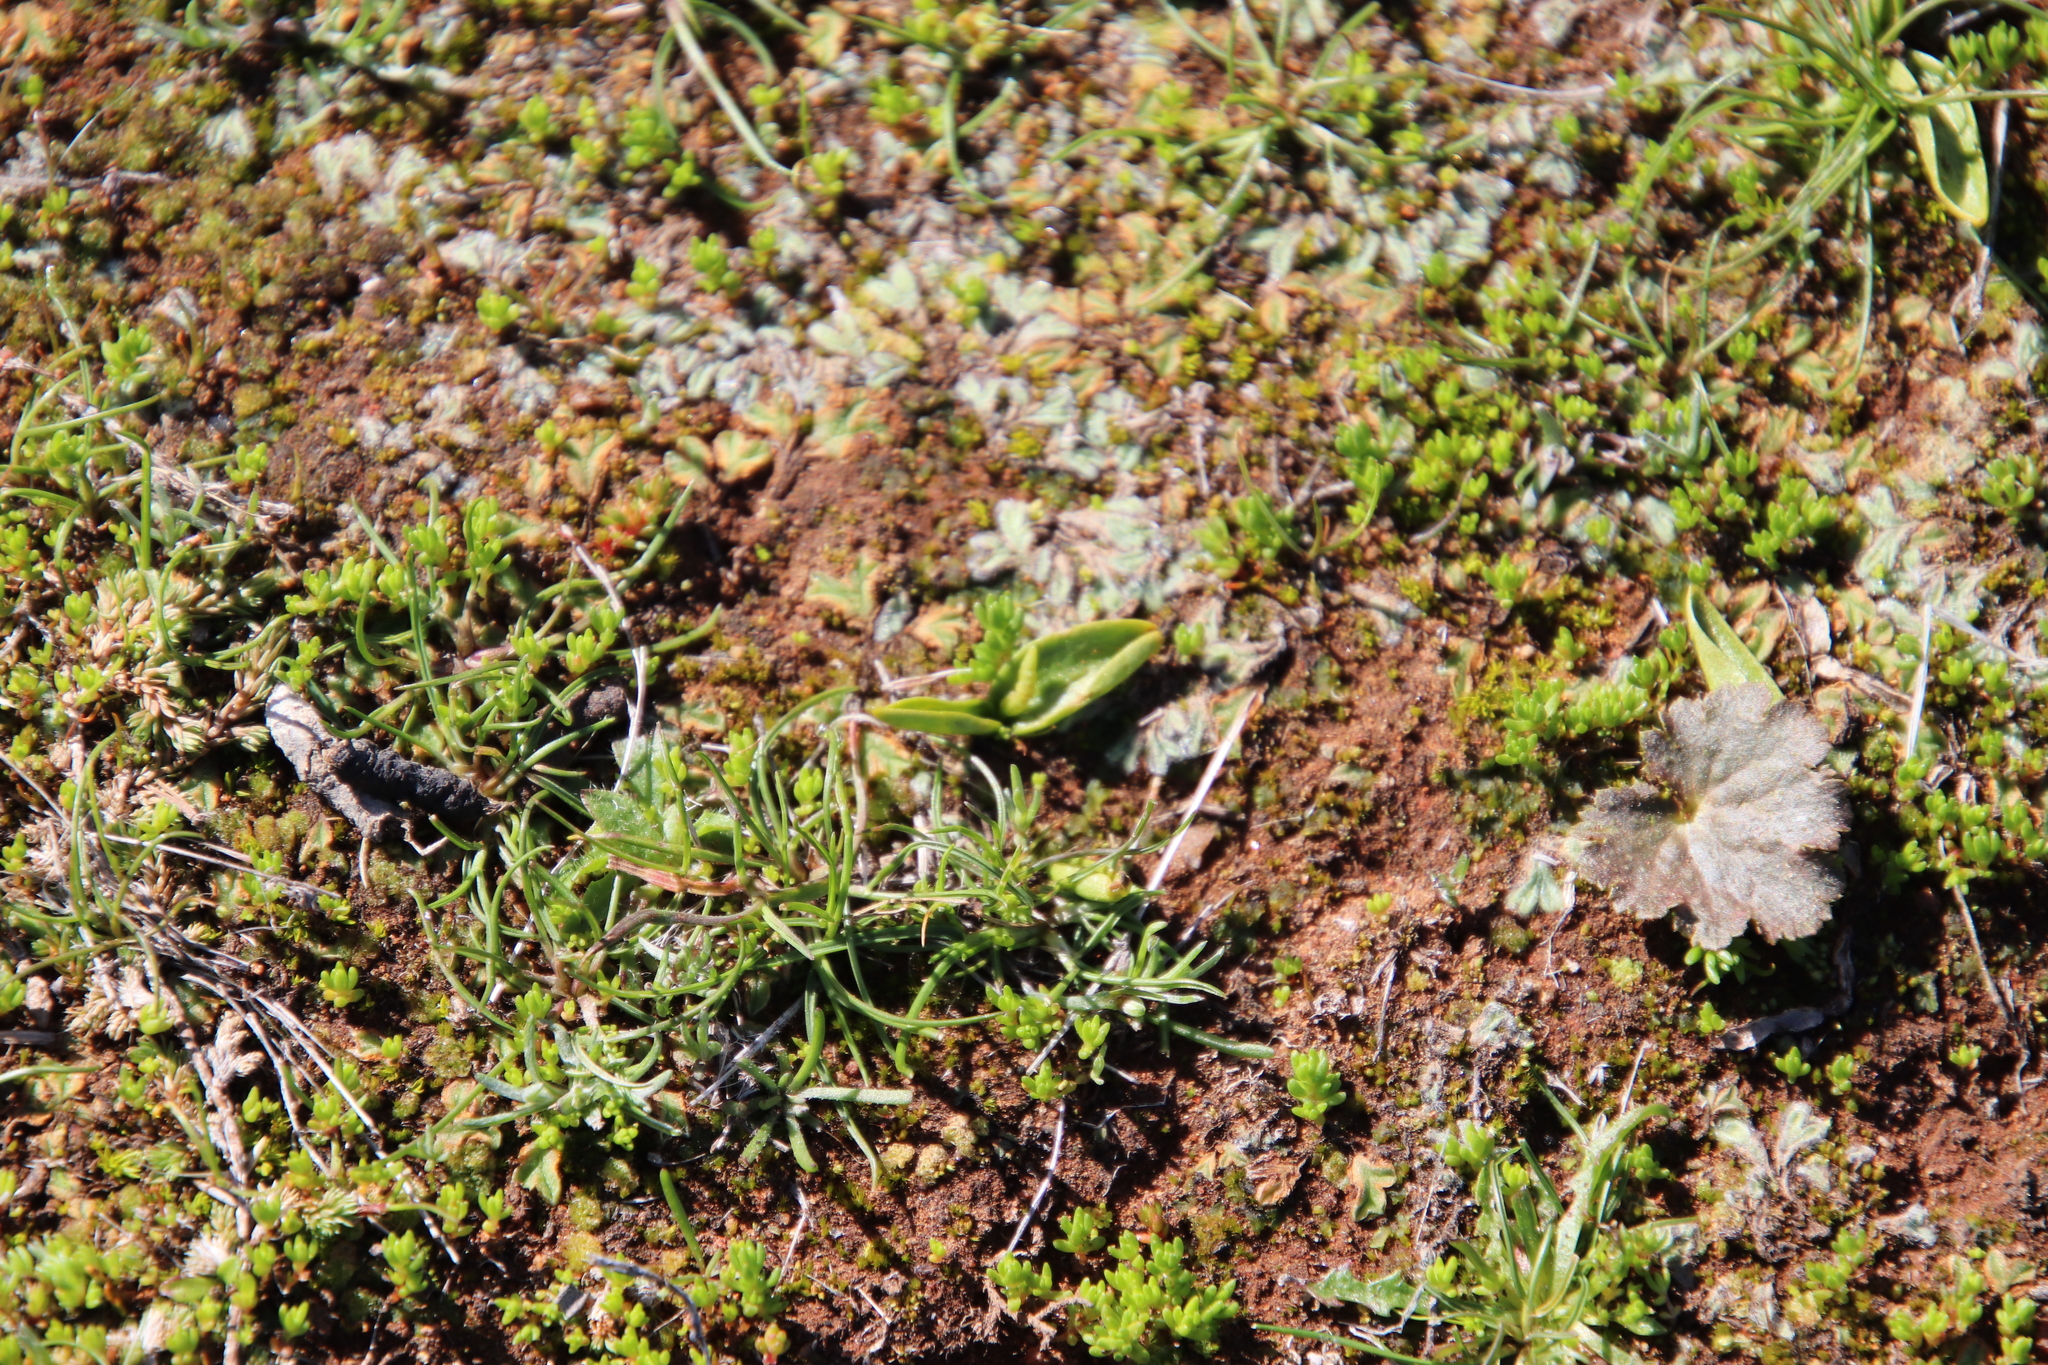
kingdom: Plantae
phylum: Tracheophyta
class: Polypodiopsida
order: Ophioglossales
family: Ophioglossaceae
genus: Ophioglossum
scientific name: Ophioglossum californicum
